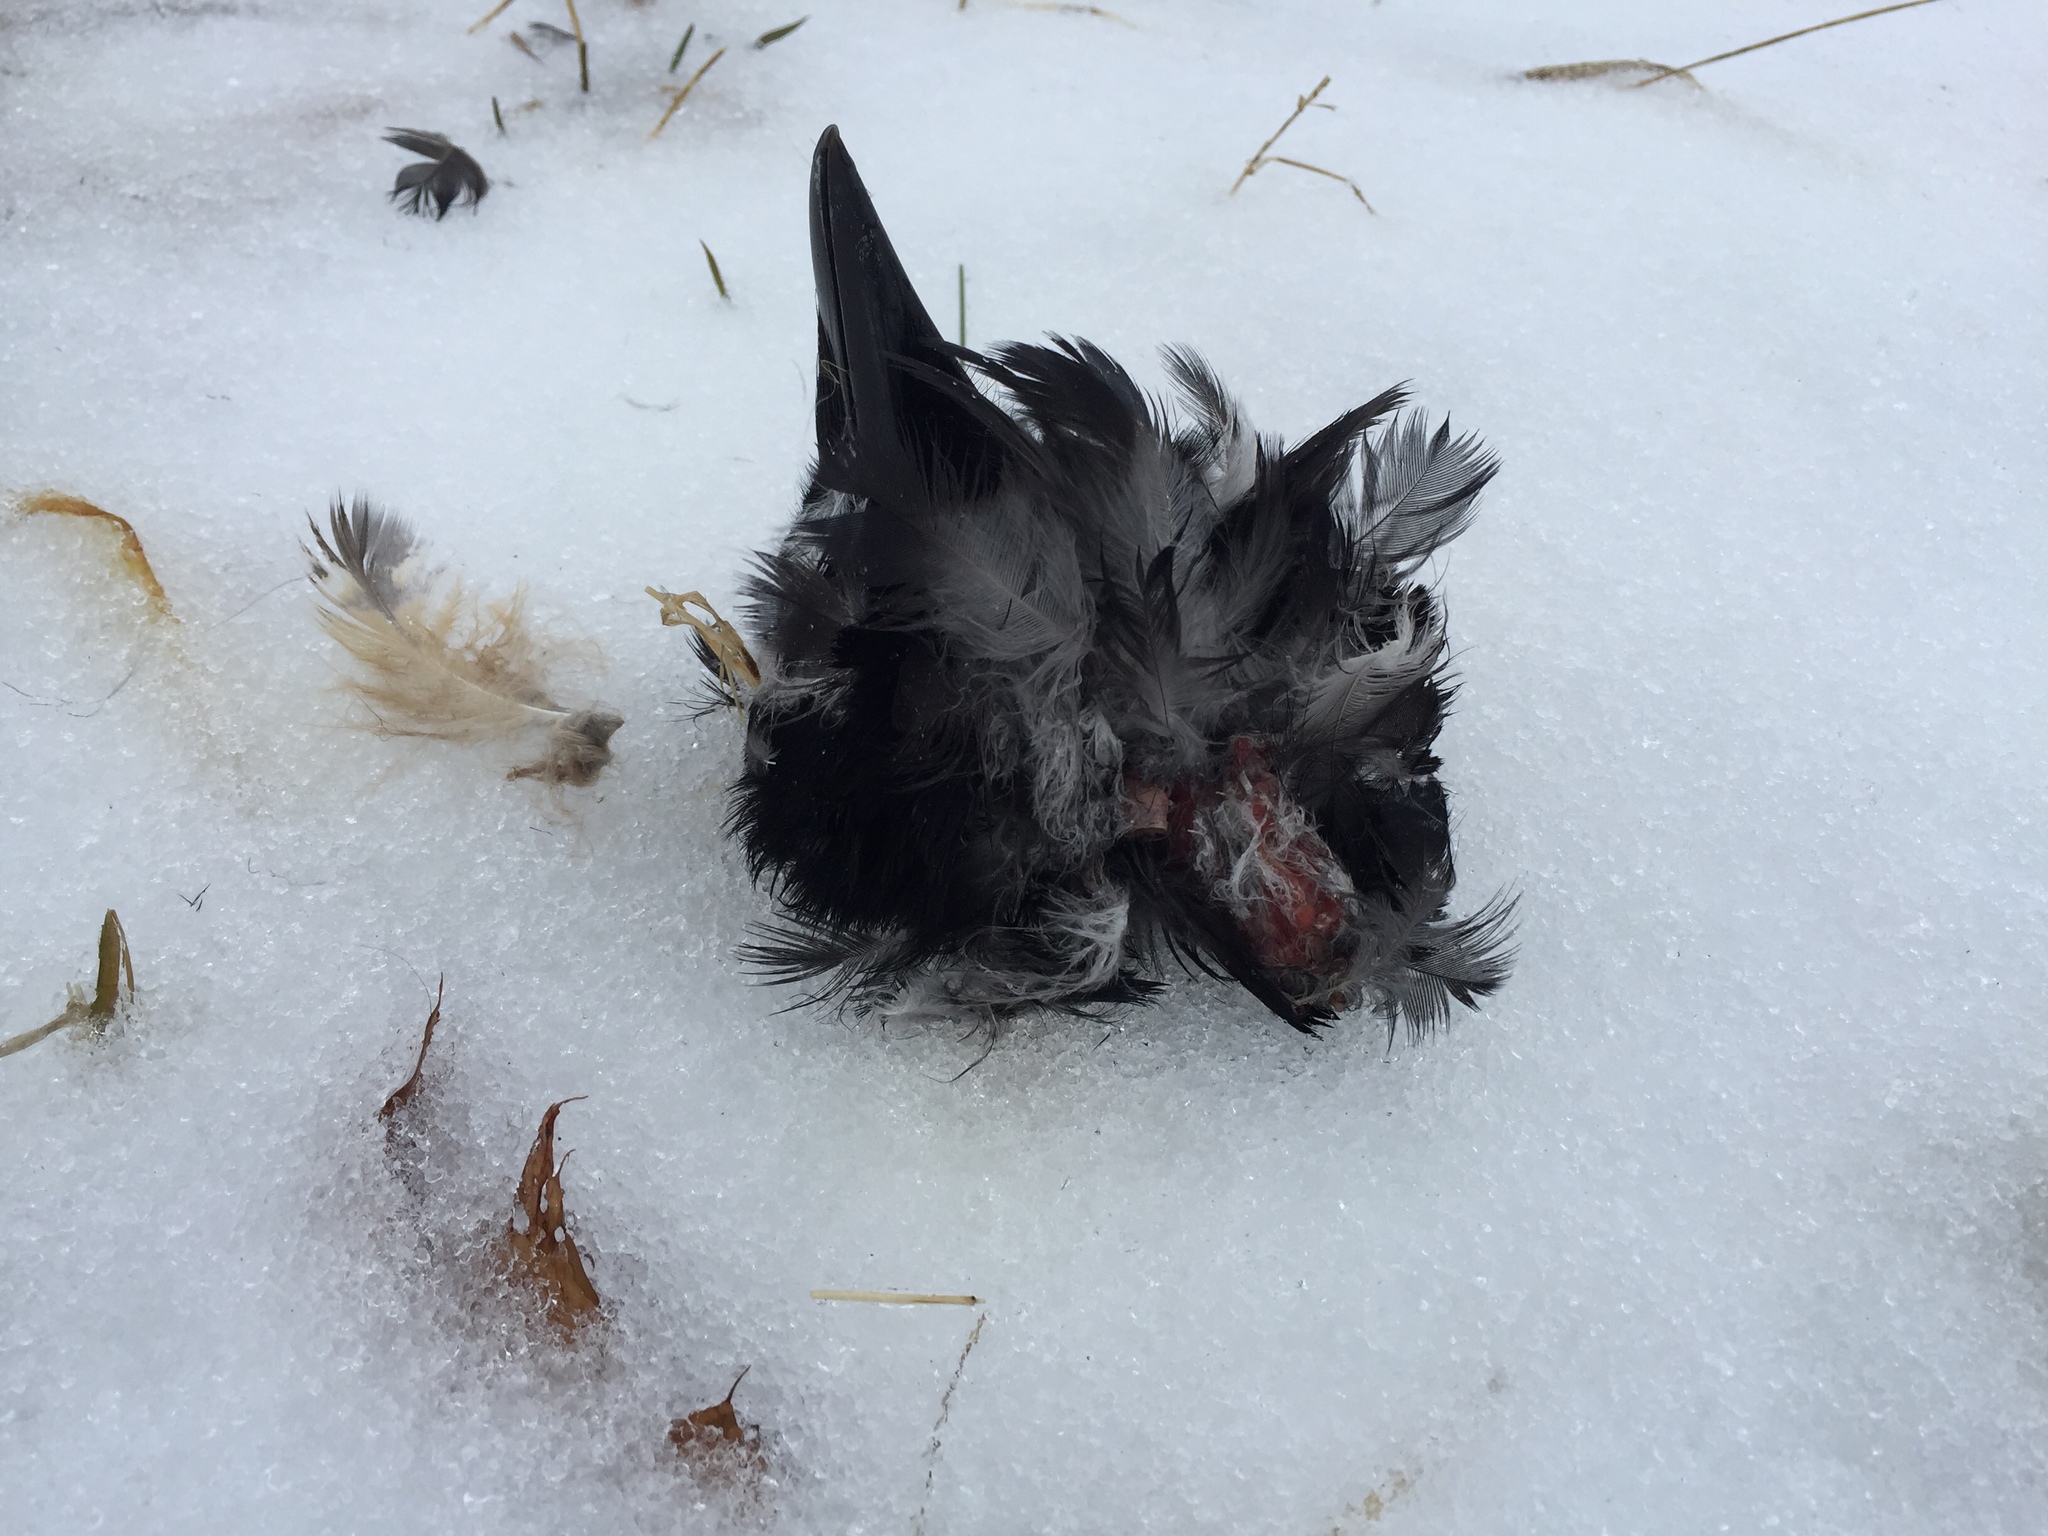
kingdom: Animalia
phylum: Chordata
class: Aves
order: Passeriformes
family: Corvidae
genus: Corvus
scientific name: Corvus corax
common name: Common raven
